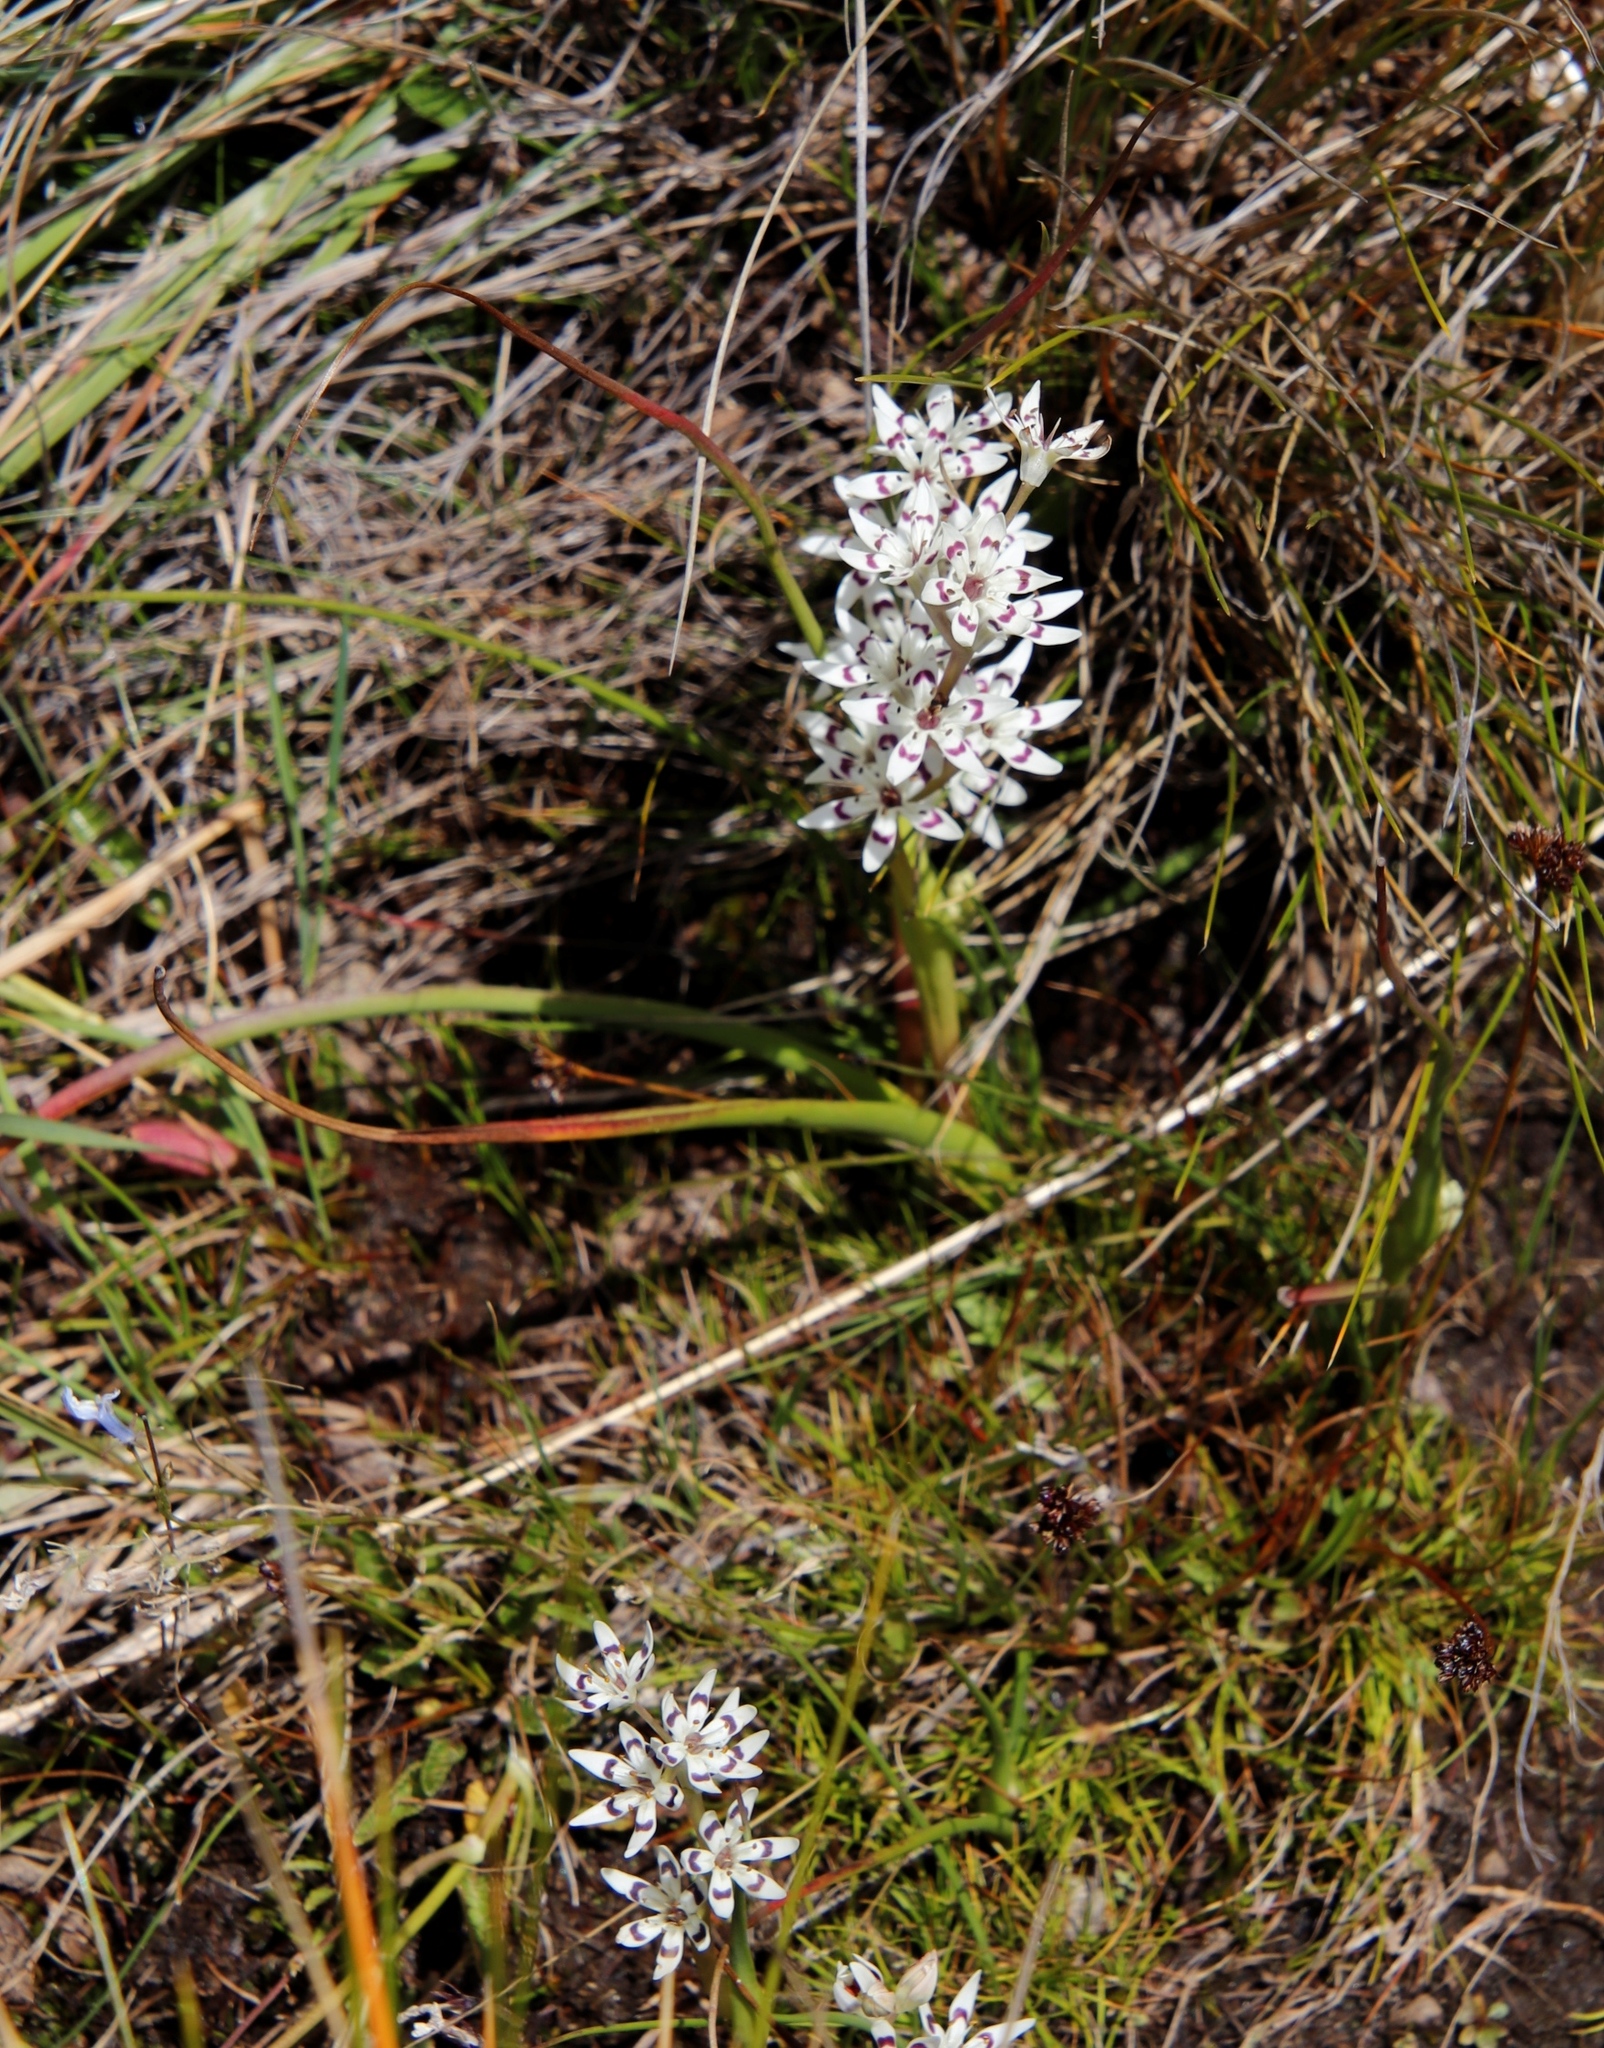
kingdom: Plantae
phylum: Tracheophyta
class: Liliopsida
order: Liliales
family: Colchicaceae
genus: Wurmbea
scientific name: Wurmbea elatior
